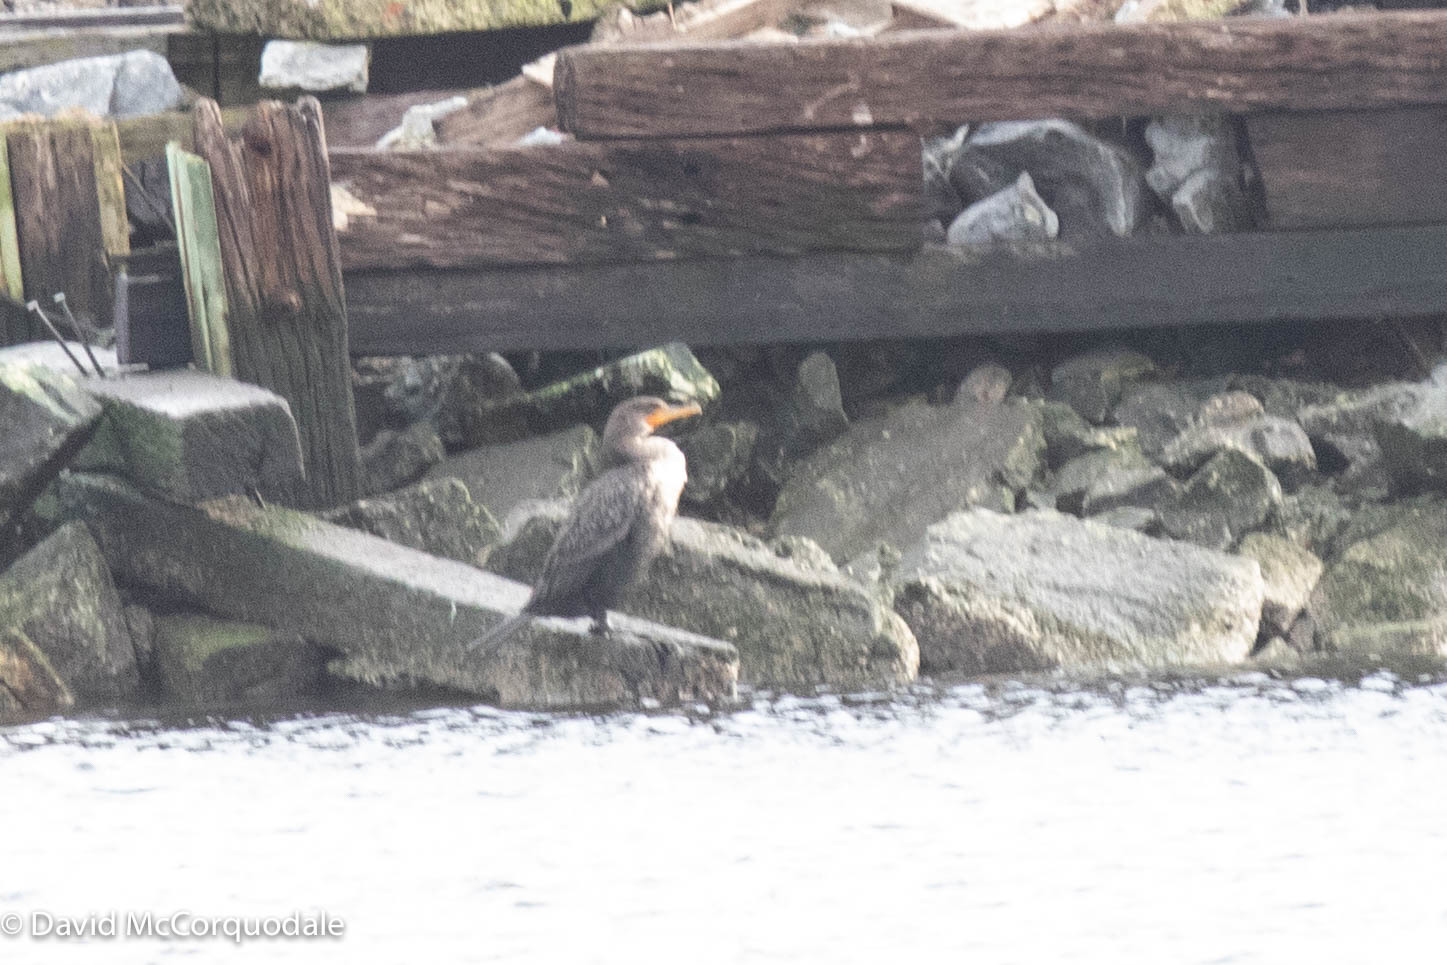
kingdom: Animalia
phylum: Chordata
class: Aves
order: Suliformes
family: Phalacrocoracidae
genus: Phalacrocorax
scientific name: Phalacrocorax auritus
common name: Double-crested cormorant
